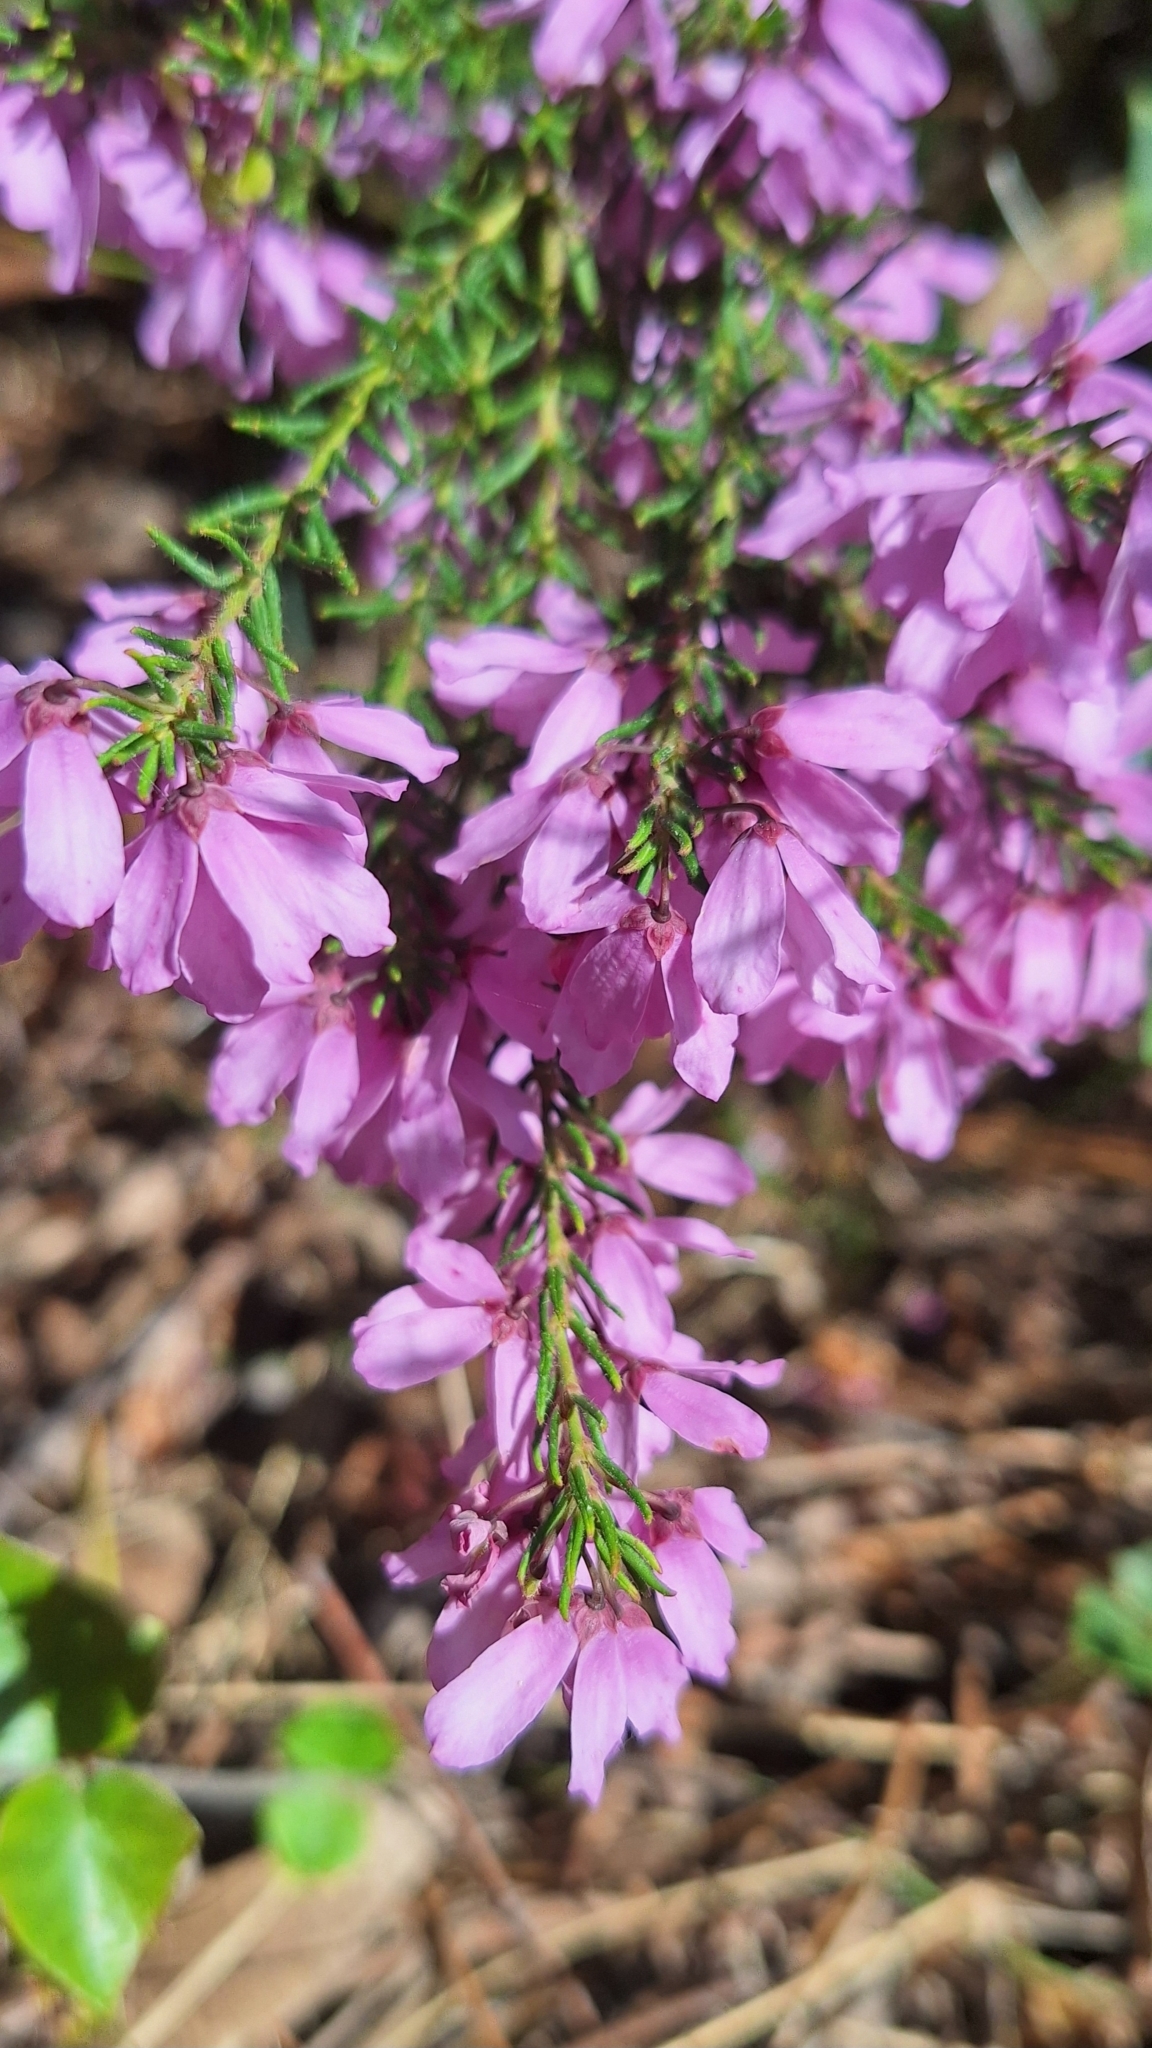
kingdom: Plantae
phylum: Tracheophyta
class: Magnoliopsida
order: Oxalidales
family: Elaeocarpaceae
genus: Tetratheca
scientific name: Tetratheca pilosa
